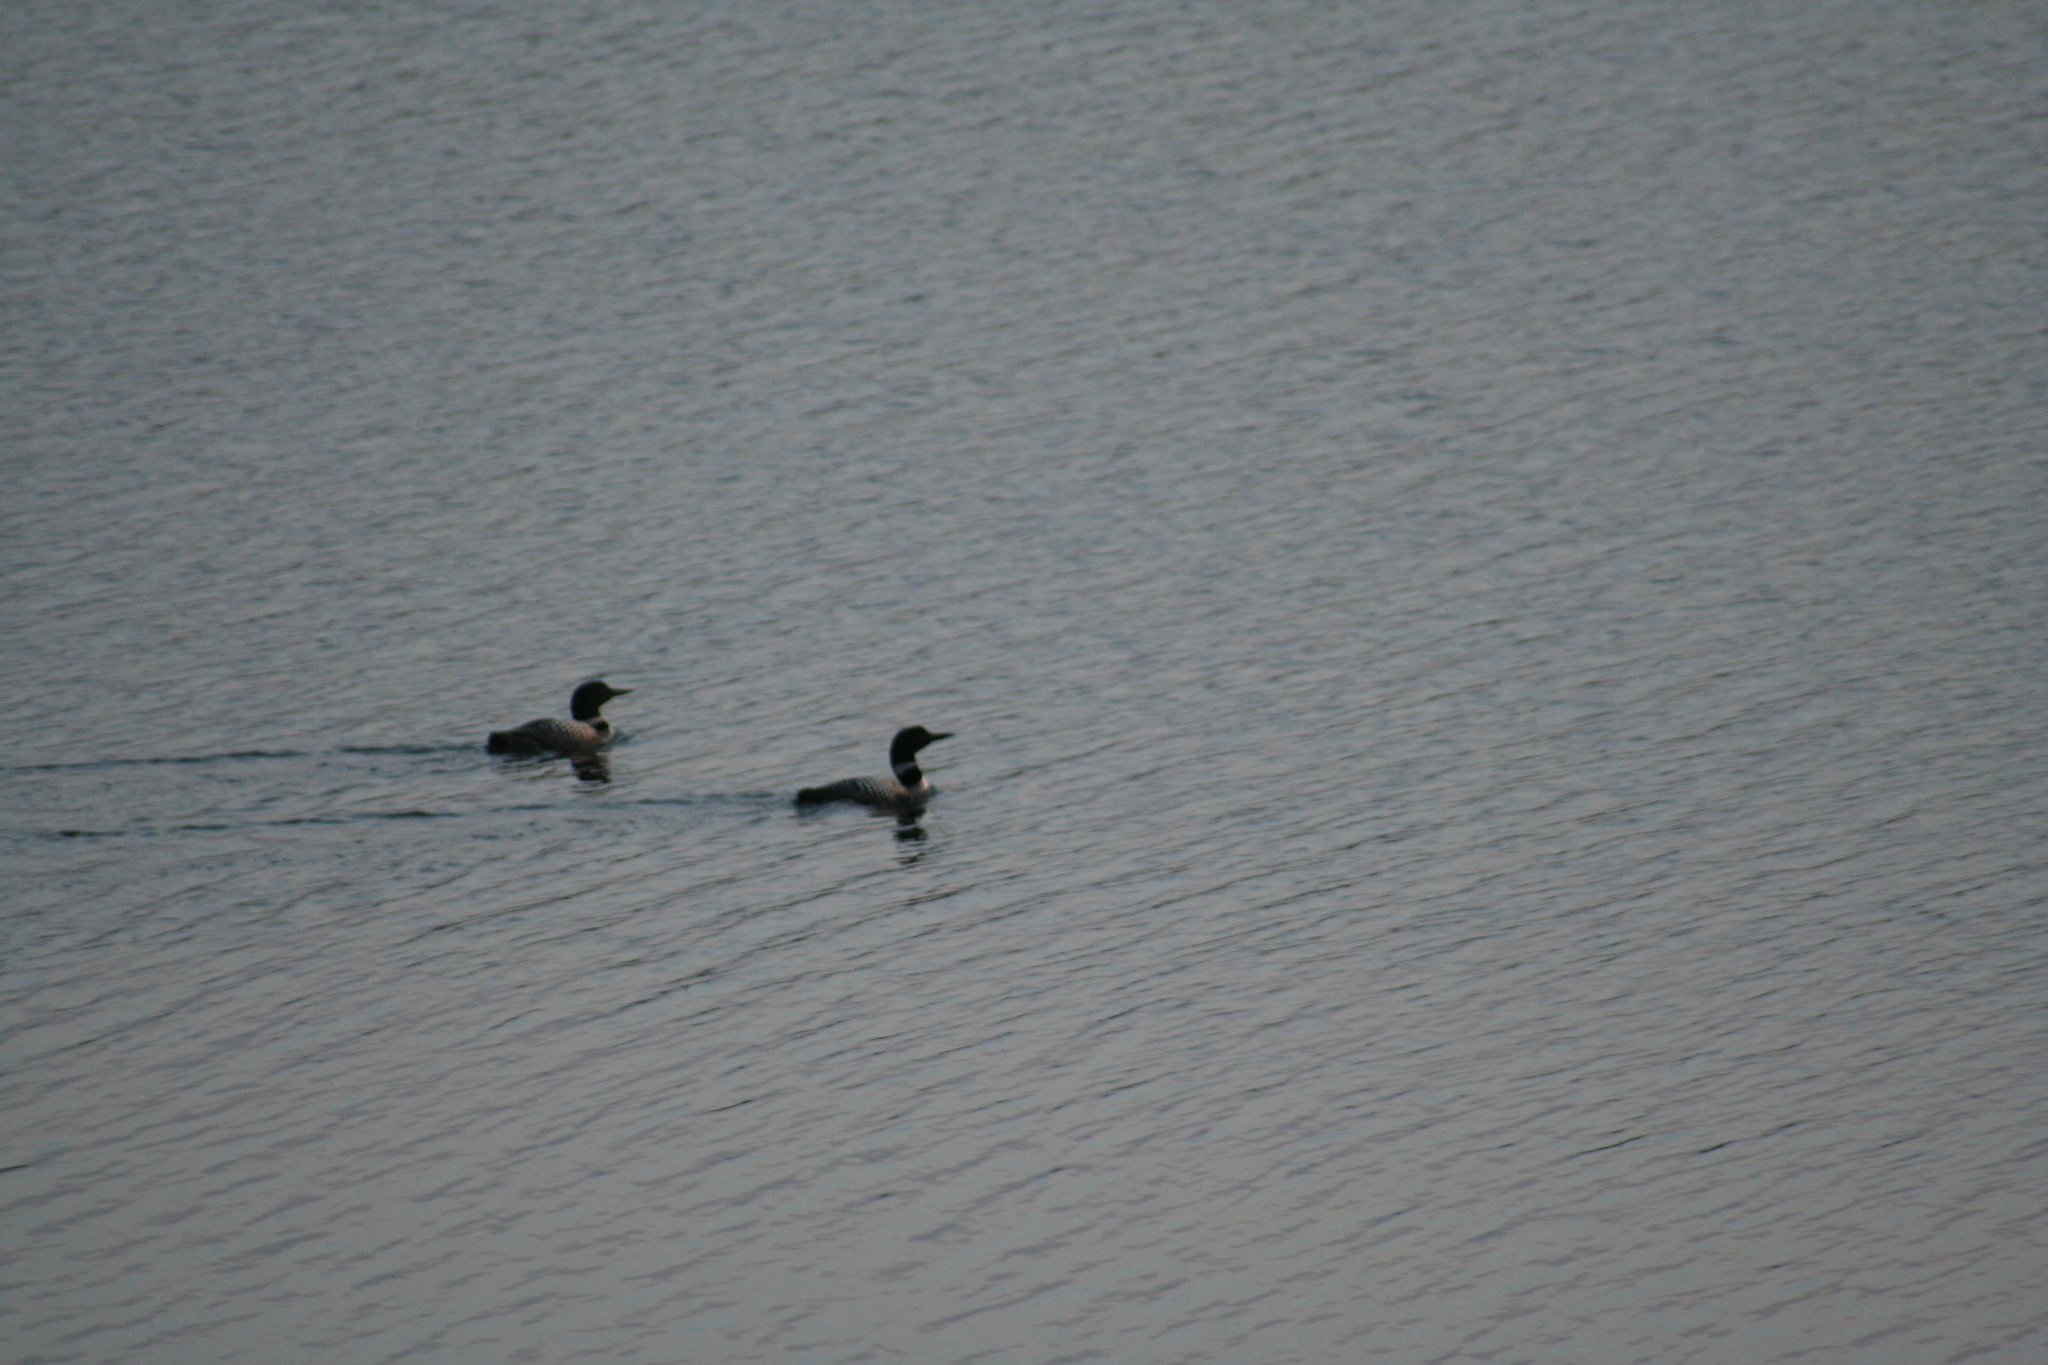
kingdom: Animalia
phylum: Chordata
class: Aves
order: Gaviiformes
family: Gaviidae
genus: Gavia
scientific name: Gavia immer
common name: Common loon
